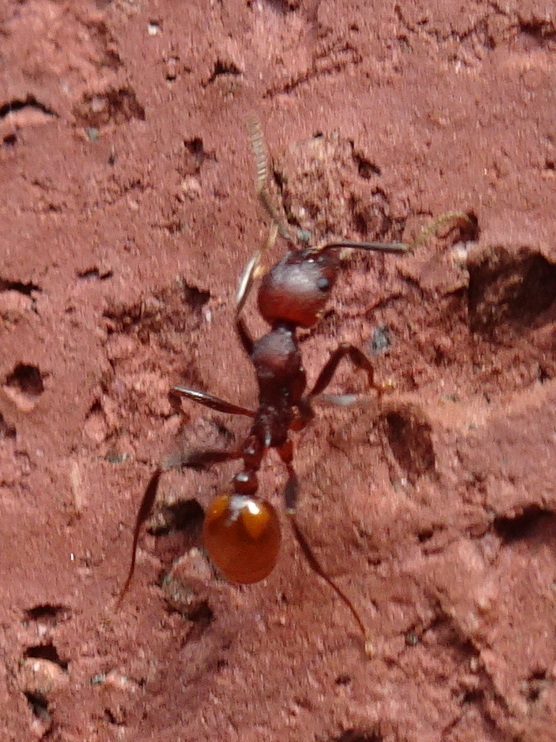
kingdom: Animalia
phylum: Arthropoda
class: Insecta
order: Hymenoptera
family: Formicidae
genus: Aphaenogaster
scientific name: Aphaenogaster tennesseensis
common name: Tennessee thread-waisted ant
